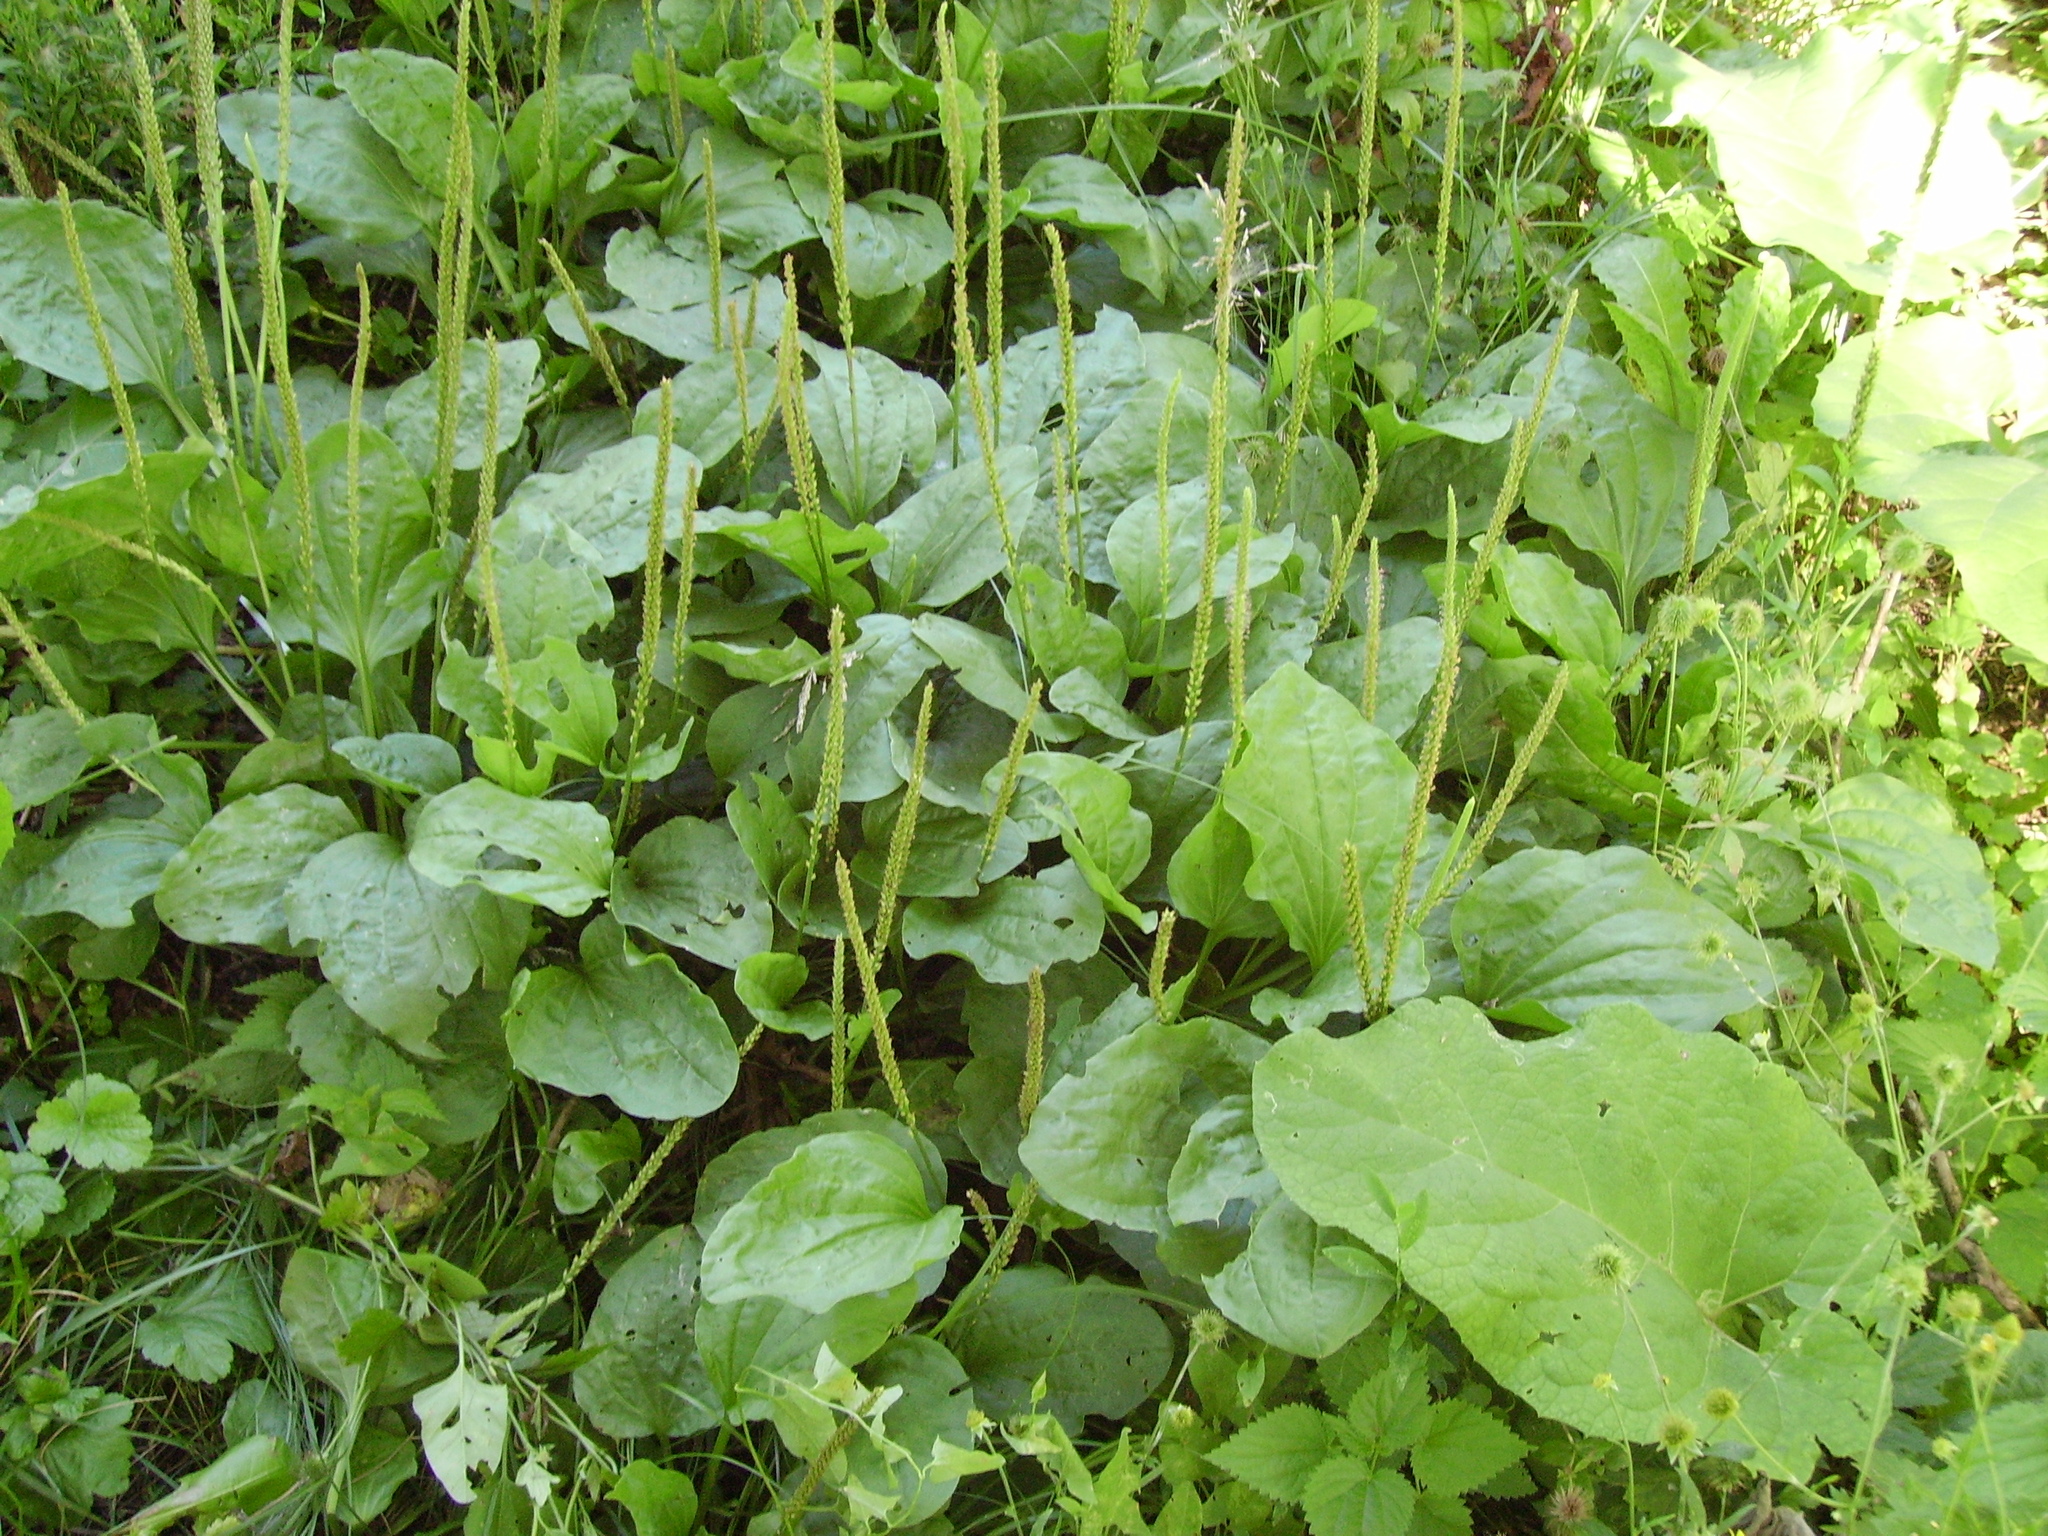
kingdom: Plantae
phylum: Tracheophyta
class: Magnoliopsida
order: Lamiales
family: Plantaginaceae
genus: Plantago
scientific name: Plantago major
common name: Common plantain
